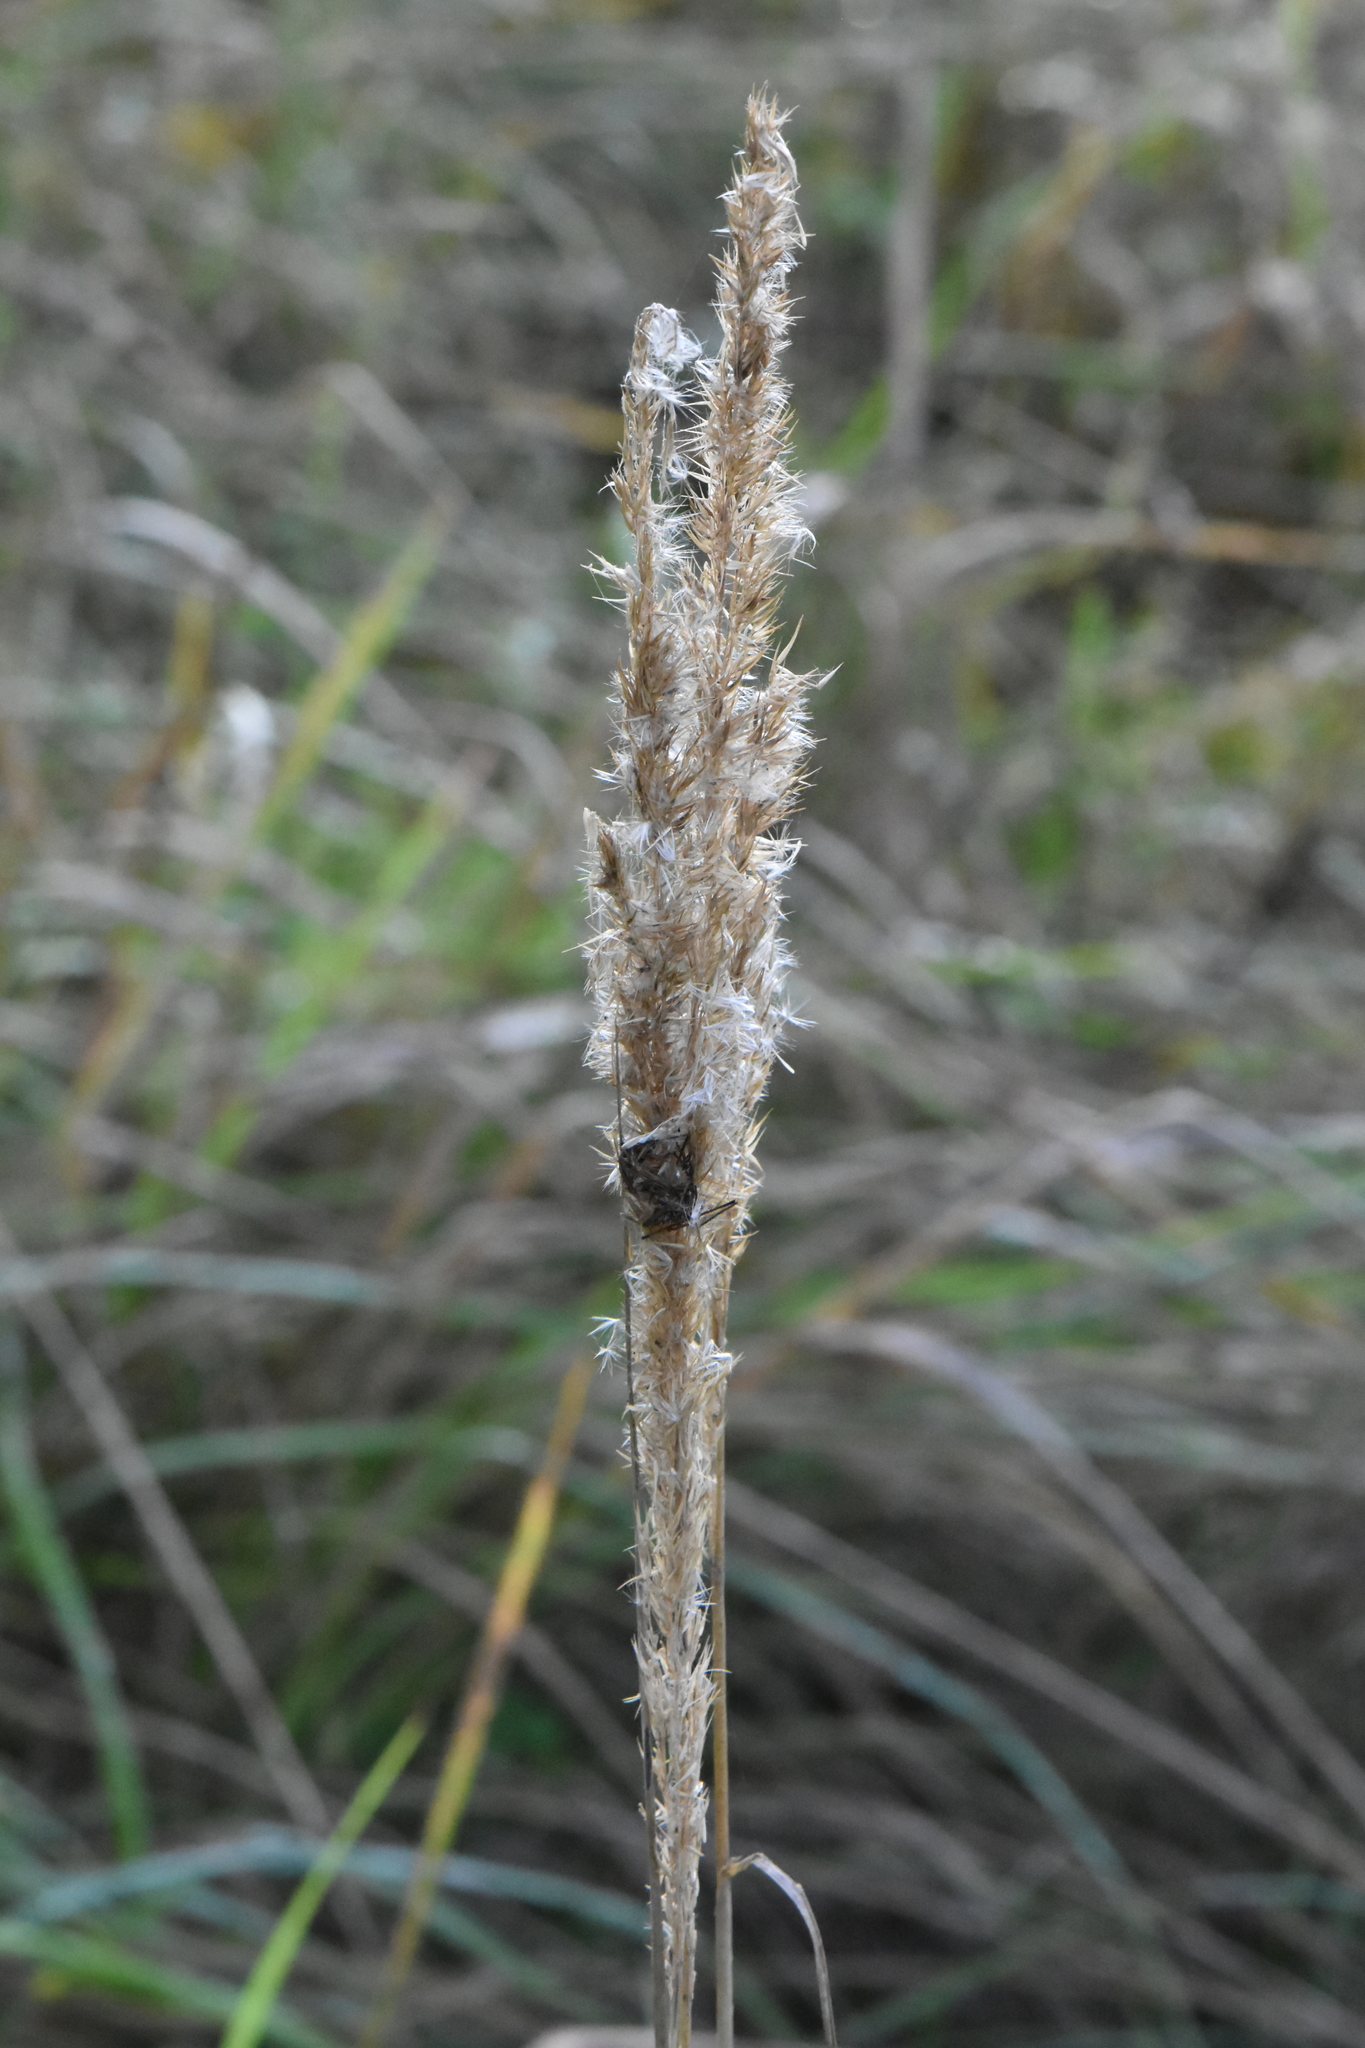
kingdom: Plantae
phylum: Tracheophyta
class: Liliopsida
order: Poales
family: Poaceae
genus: Calamagrostis
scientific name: Calamagrostis epigejos
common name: Wood small-reed
